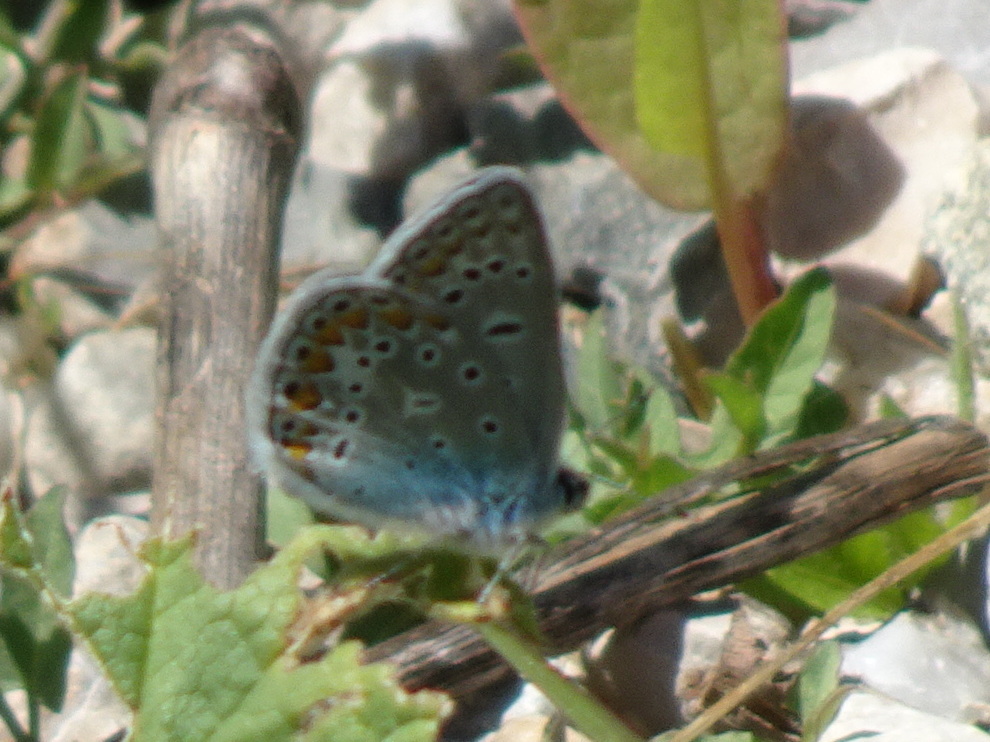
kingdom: Animalia
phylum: Arthropoda
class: Insecta
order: Lepidoptera
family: Lycaenidae
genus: Polyommatus
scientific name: Polyommatus icarus
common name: Common blue
